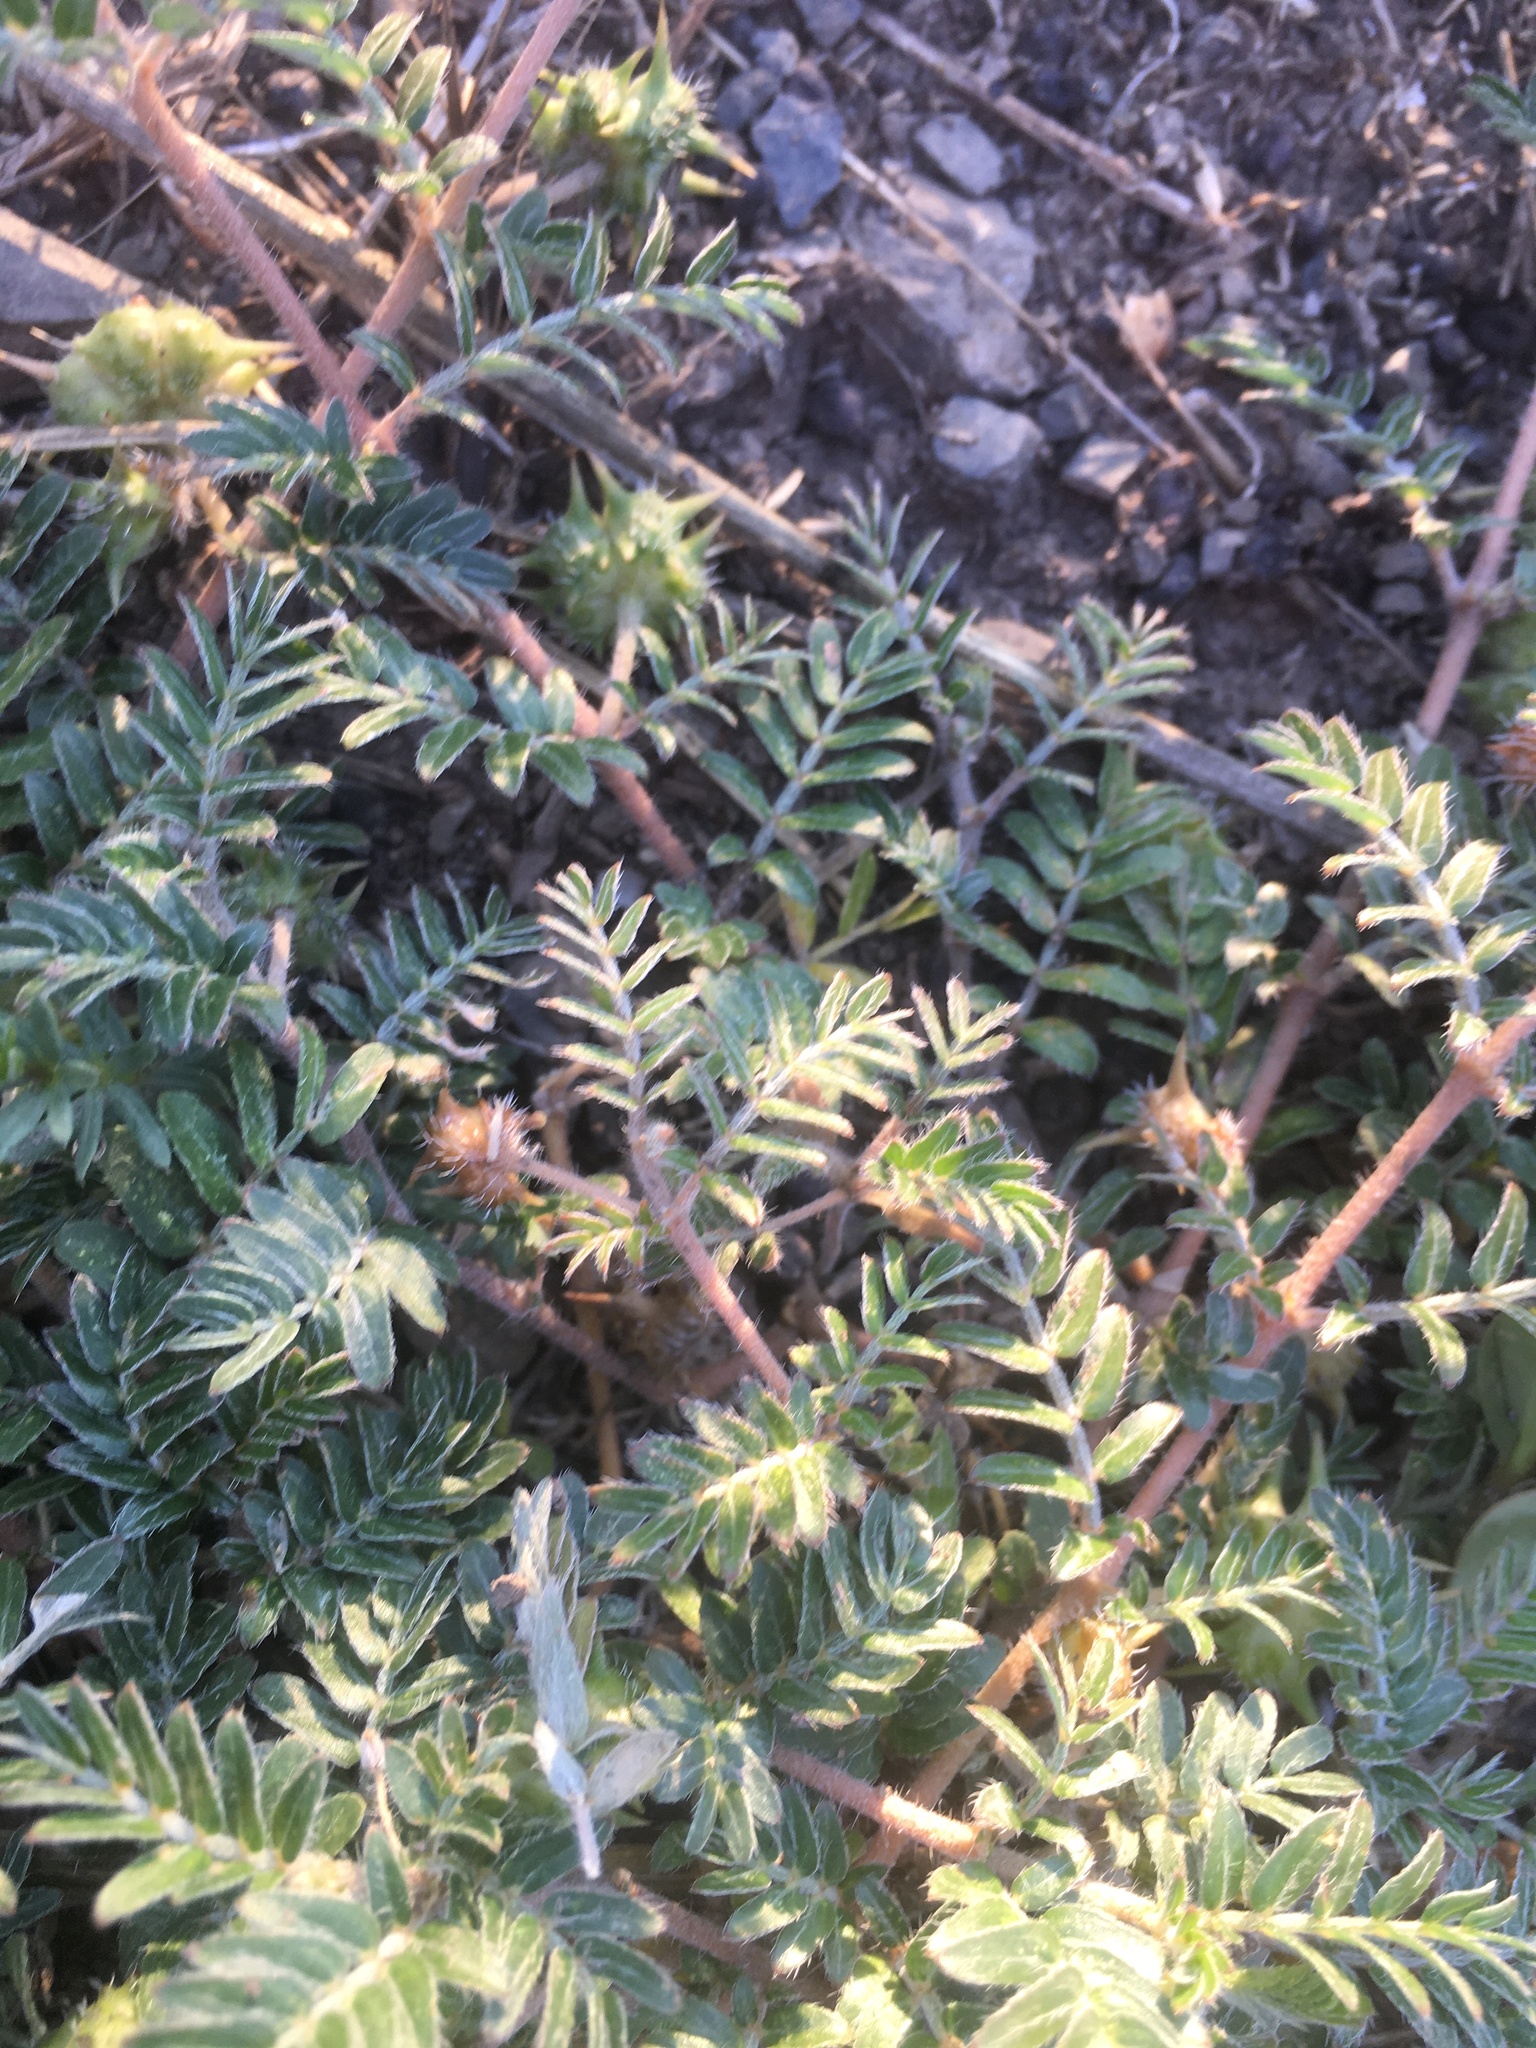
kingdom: Plantae
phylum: Tracheophyta
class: Magnoliopsida
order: Zygophyllales
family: Zygophyllaceae
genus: Tribulus
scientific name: Tribulus terrestris
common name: Puncturevine
